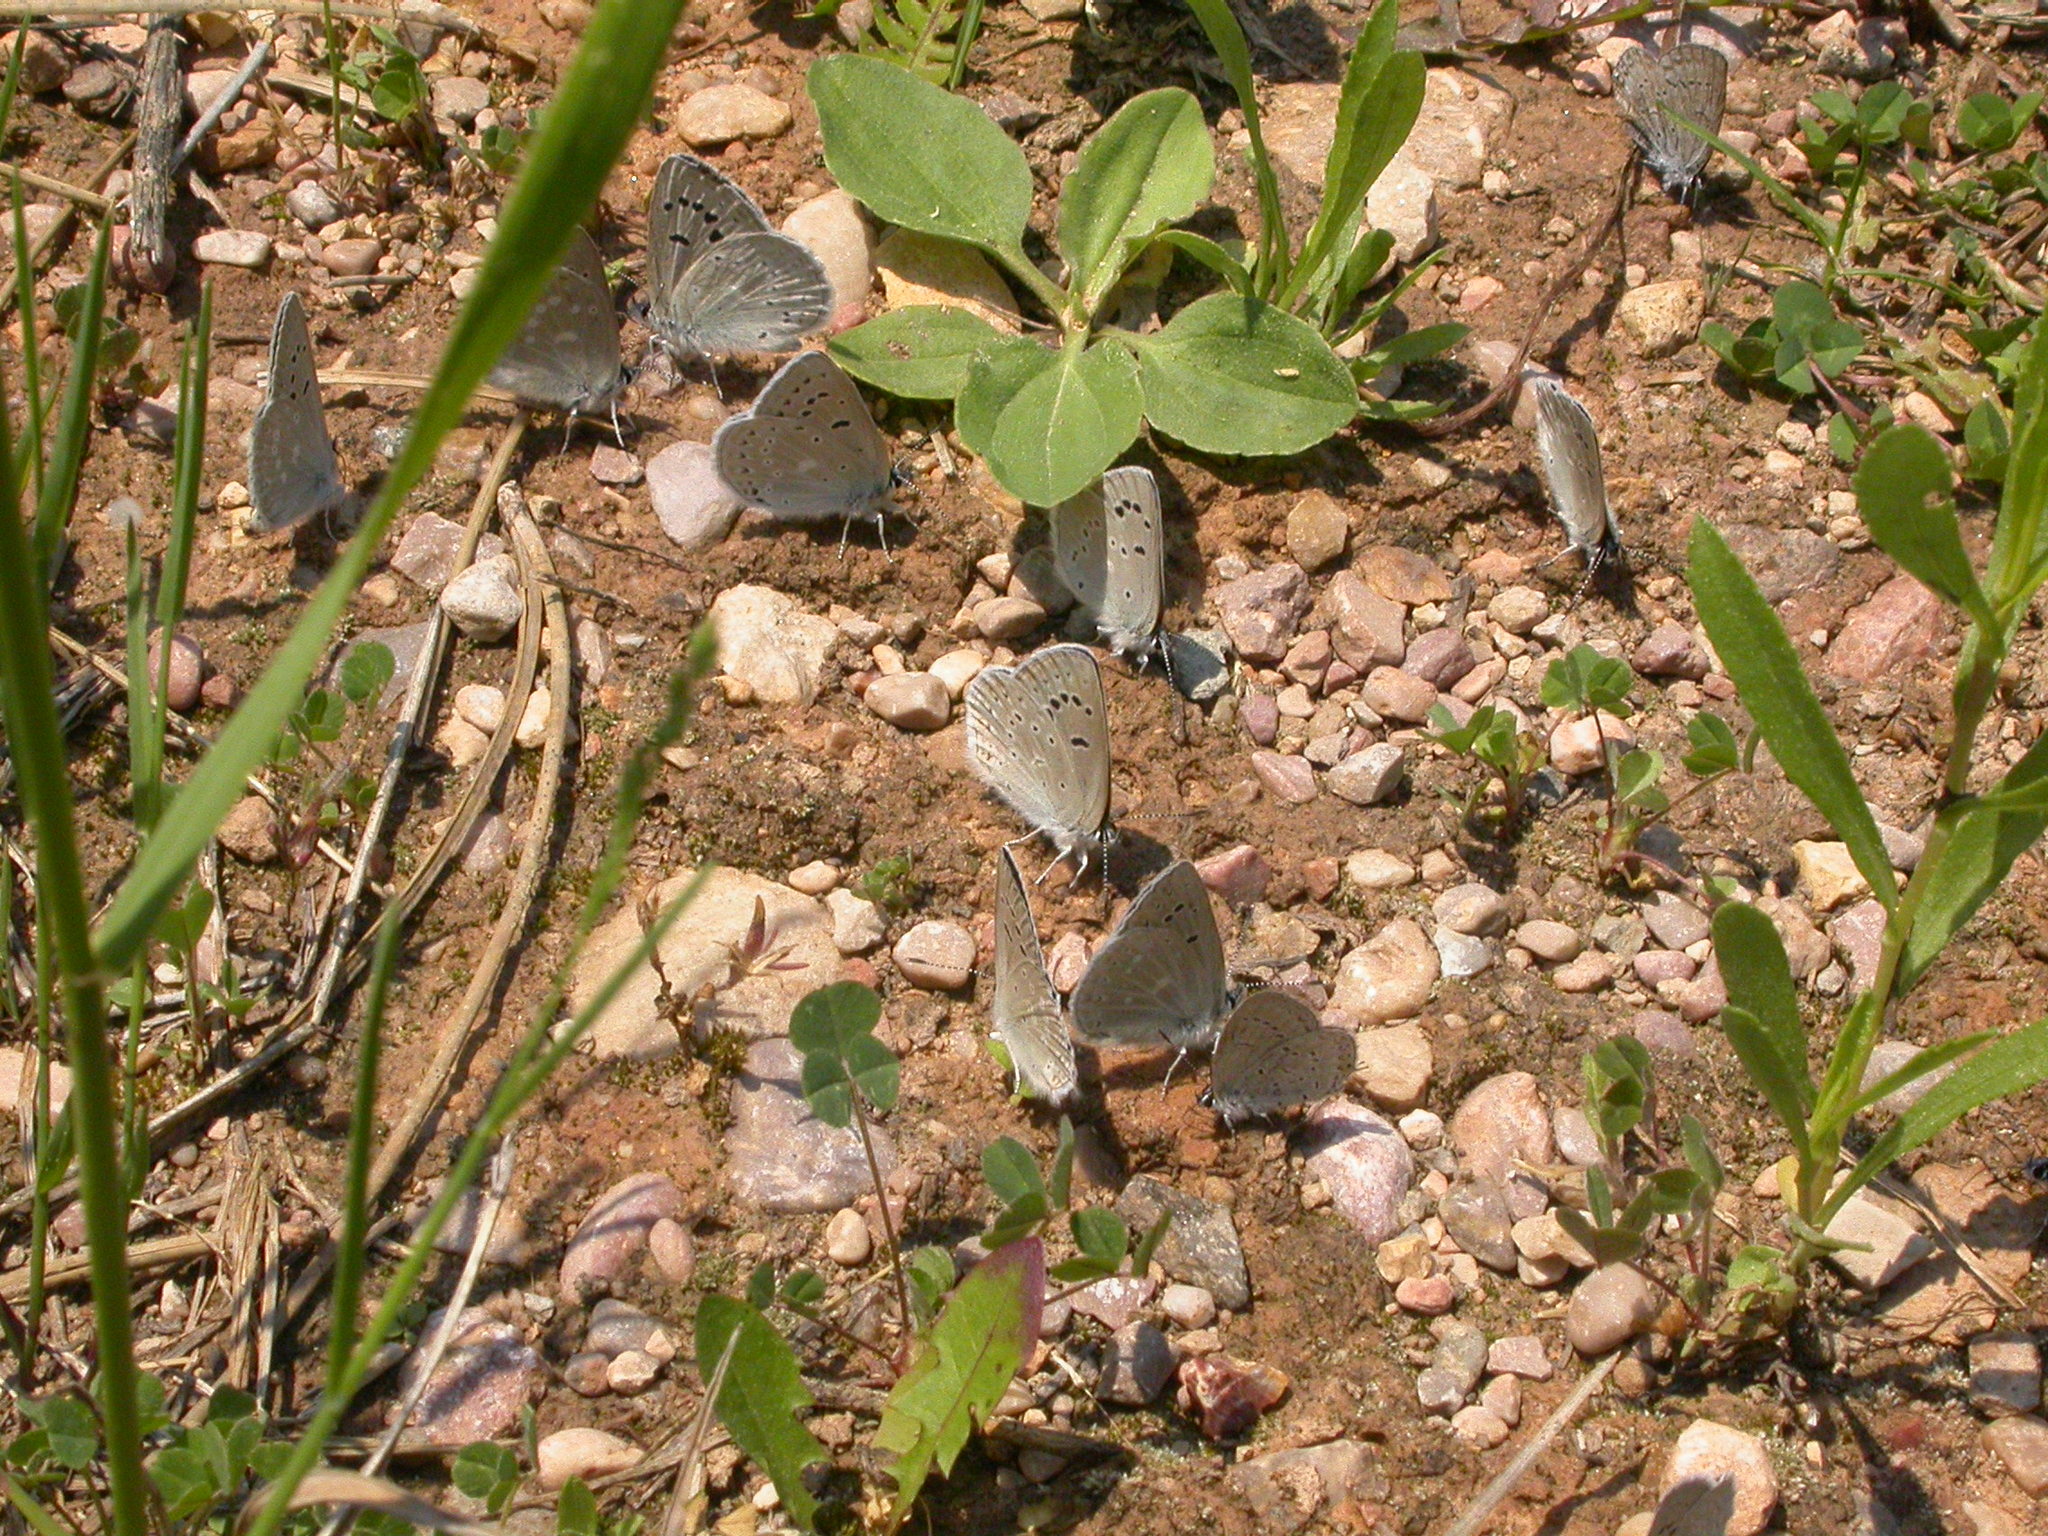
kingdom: Animalia
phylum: Arthropoda
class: Insecta
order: Lepidoptera
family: Lycaenidae
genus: Icaricia
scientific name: Icaricia icarioides
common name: Boisduval's blue
